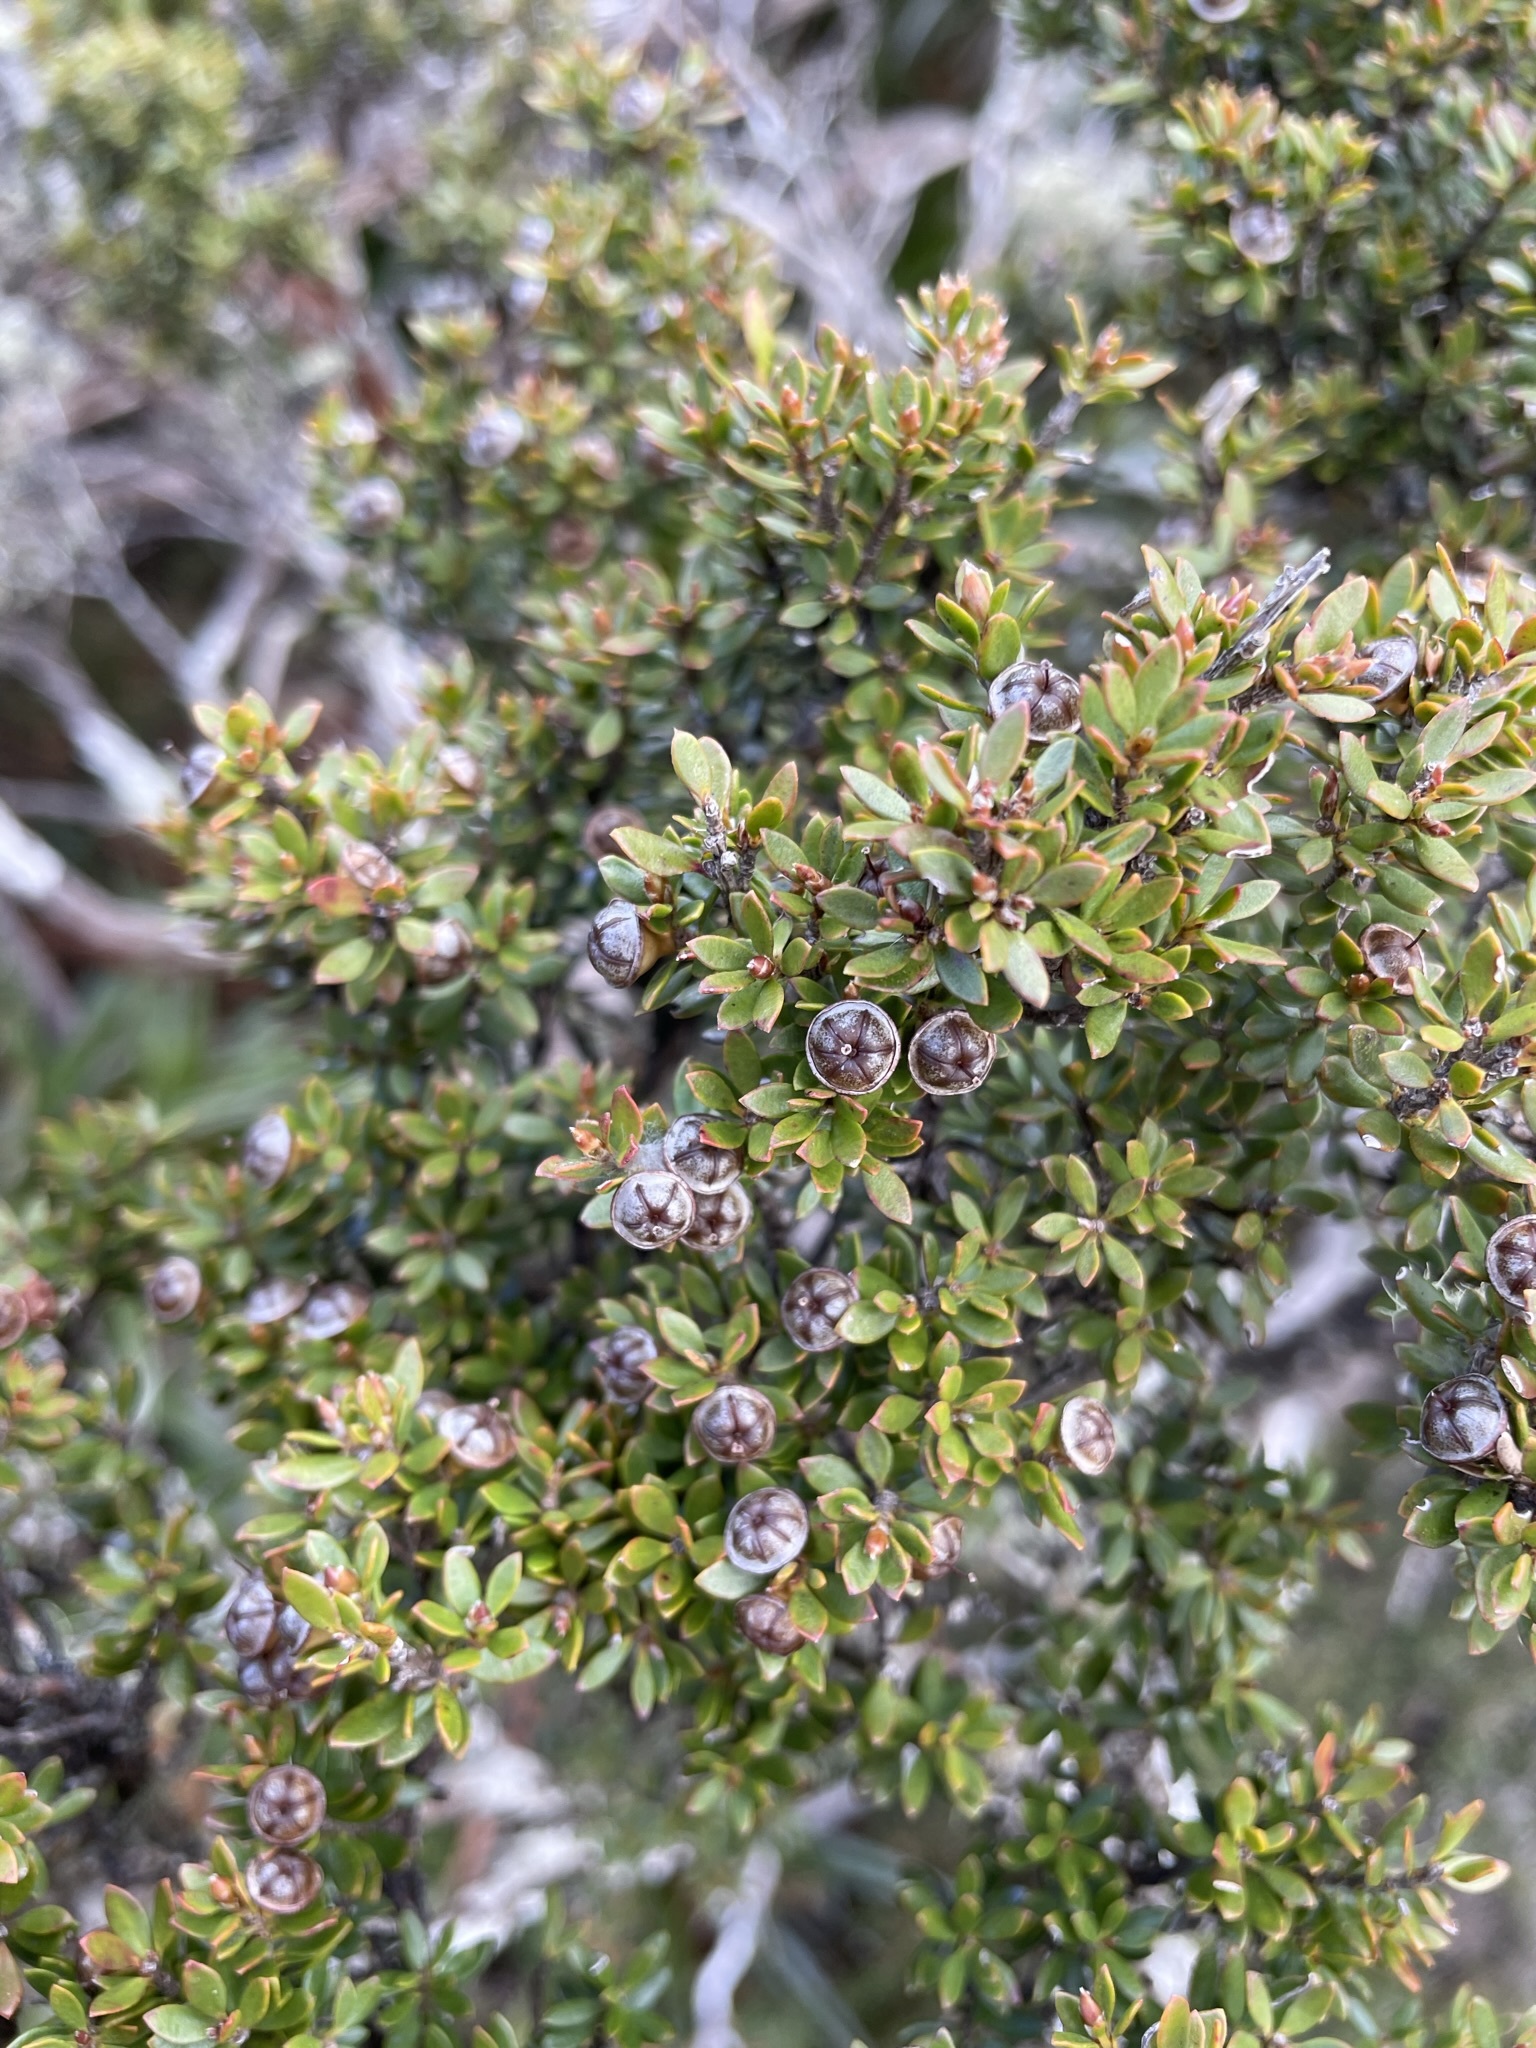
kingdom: Plantae
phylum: Tracheophyta
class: Magnoliopsida
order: Myrtales
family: Myrtaceae
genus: Leptospermum
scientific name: Leptospermum rupestre
